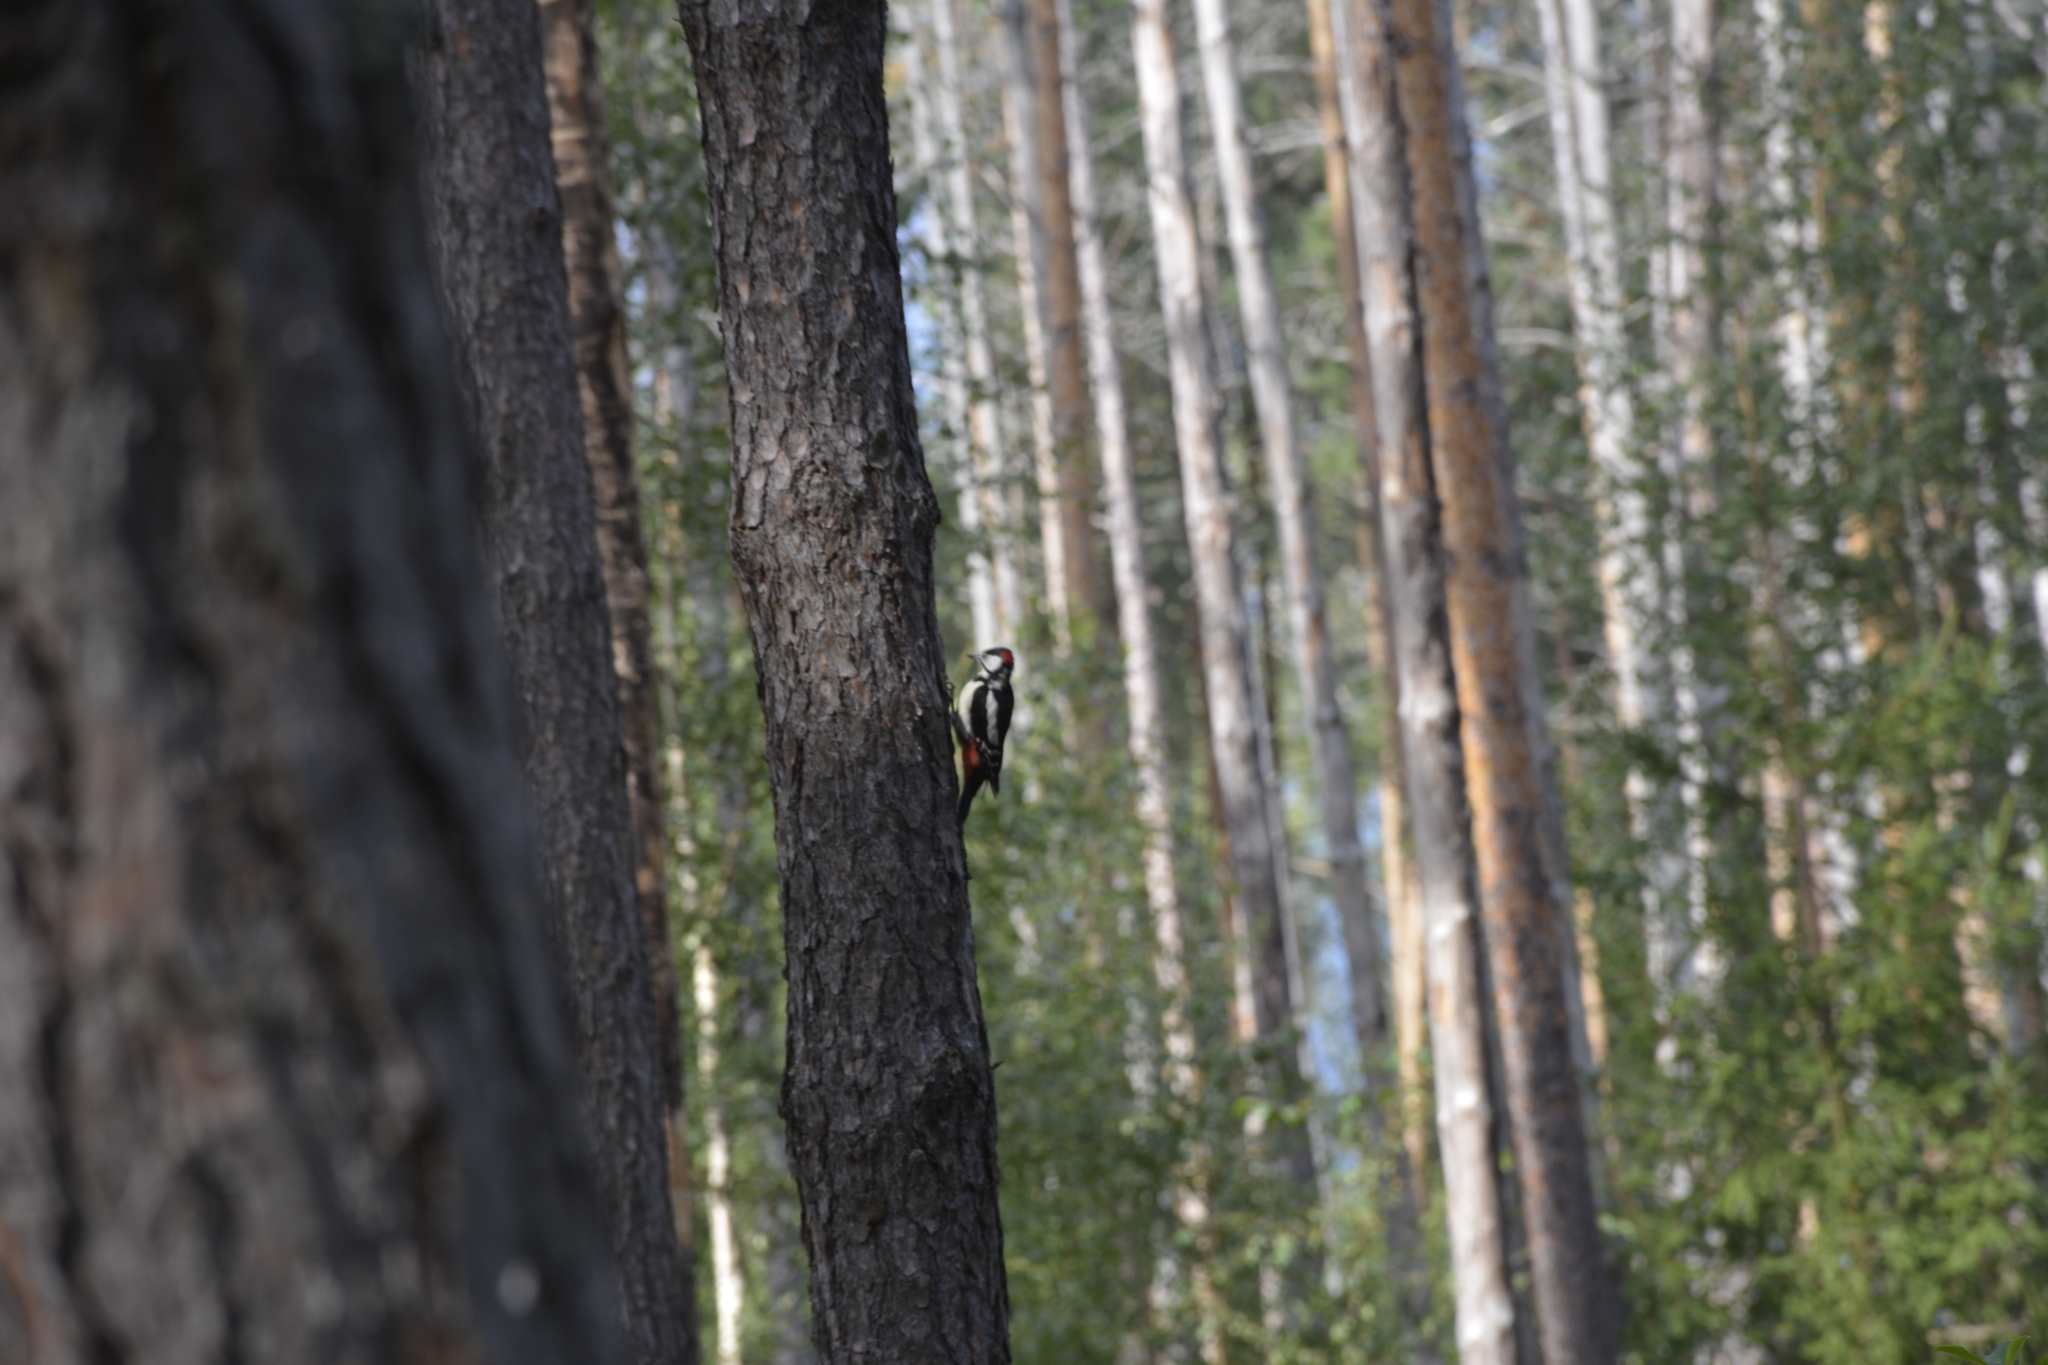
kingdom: Animalia
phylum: Chordata
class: Aves
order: Piciformes
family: Picidae
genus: Dendrocopos
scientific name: Dendrocopos major
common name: Great spotted woodpecker
